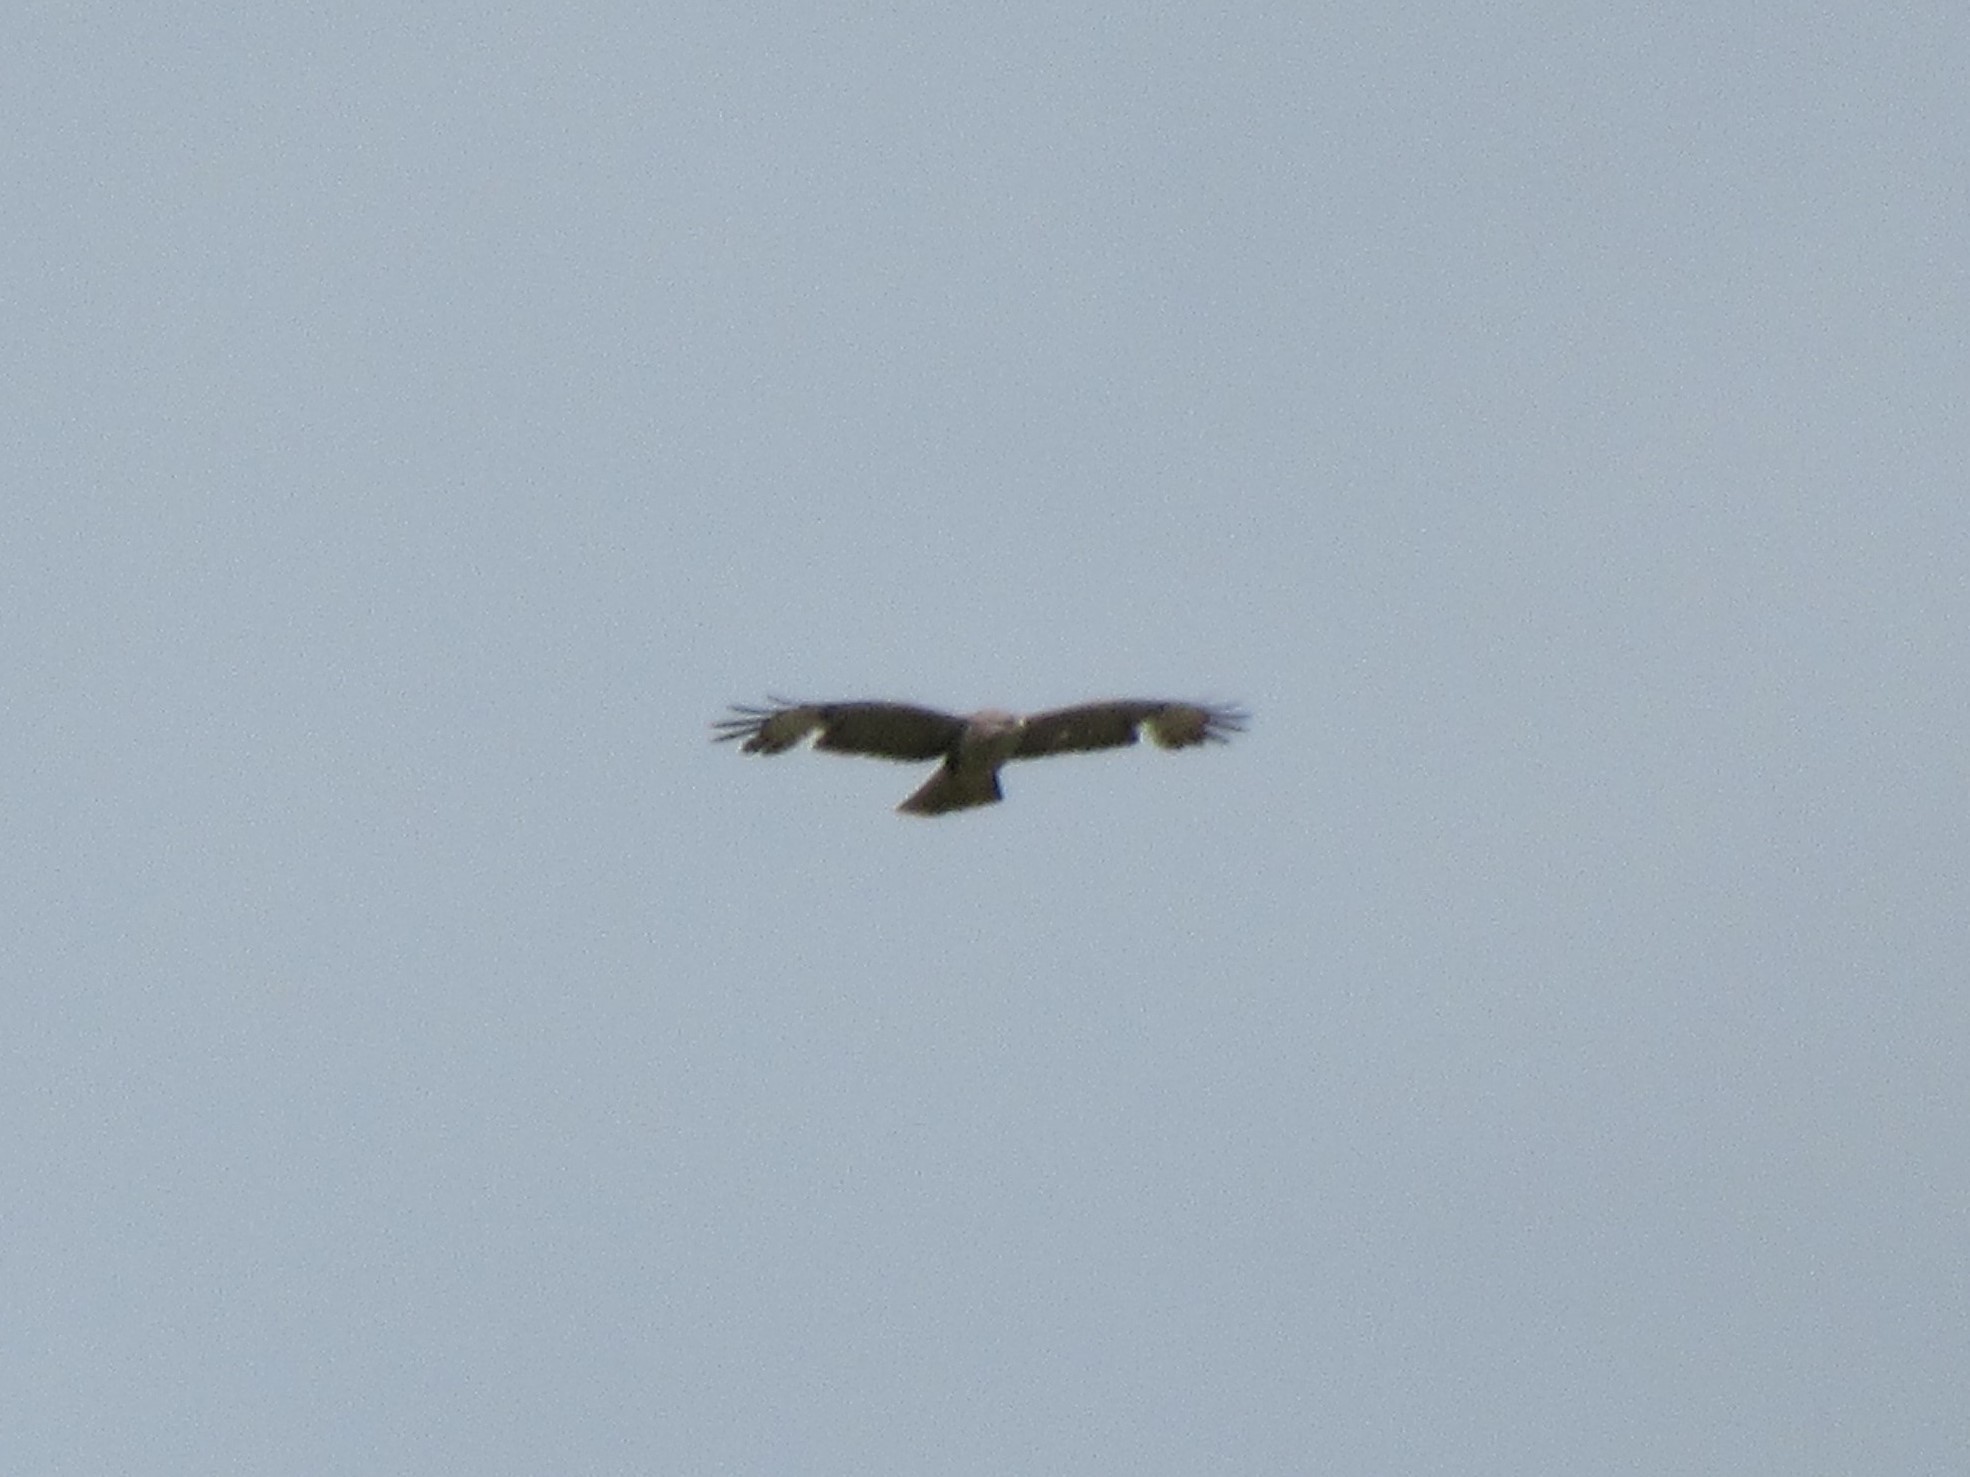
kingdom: Animalia
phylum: Chordata
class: Aves
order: Accipitriformes
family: Accipitridae
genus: Buteo
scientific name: Buteo buteo
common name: Common buzzard
